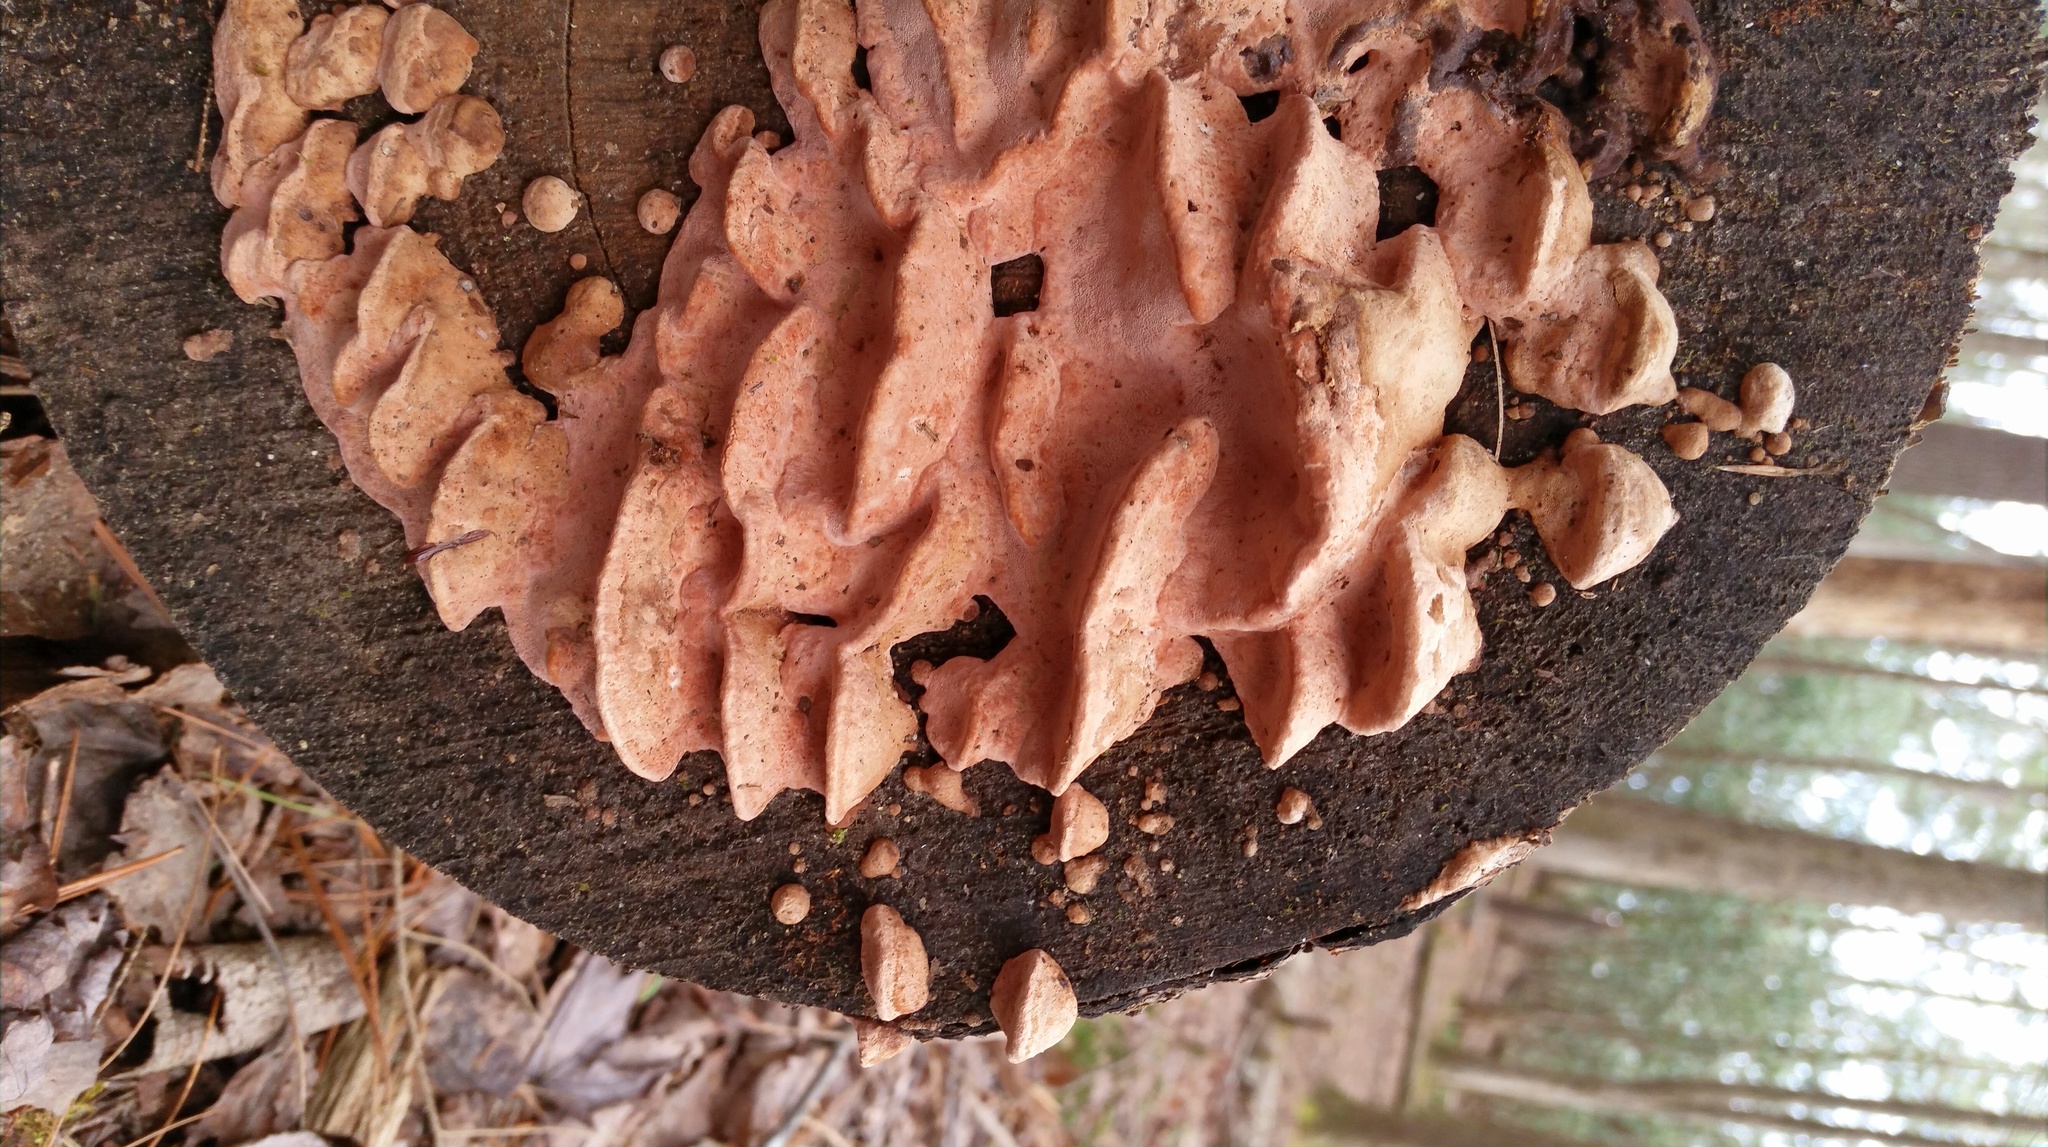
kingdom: Fungi
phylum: Basidiomycota
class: Agaricomycetes
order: Polyporales
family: Fomitopsidaceae
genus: Rhodofomes
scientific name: Rhodofomes cajanderi
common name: Rosy conk
